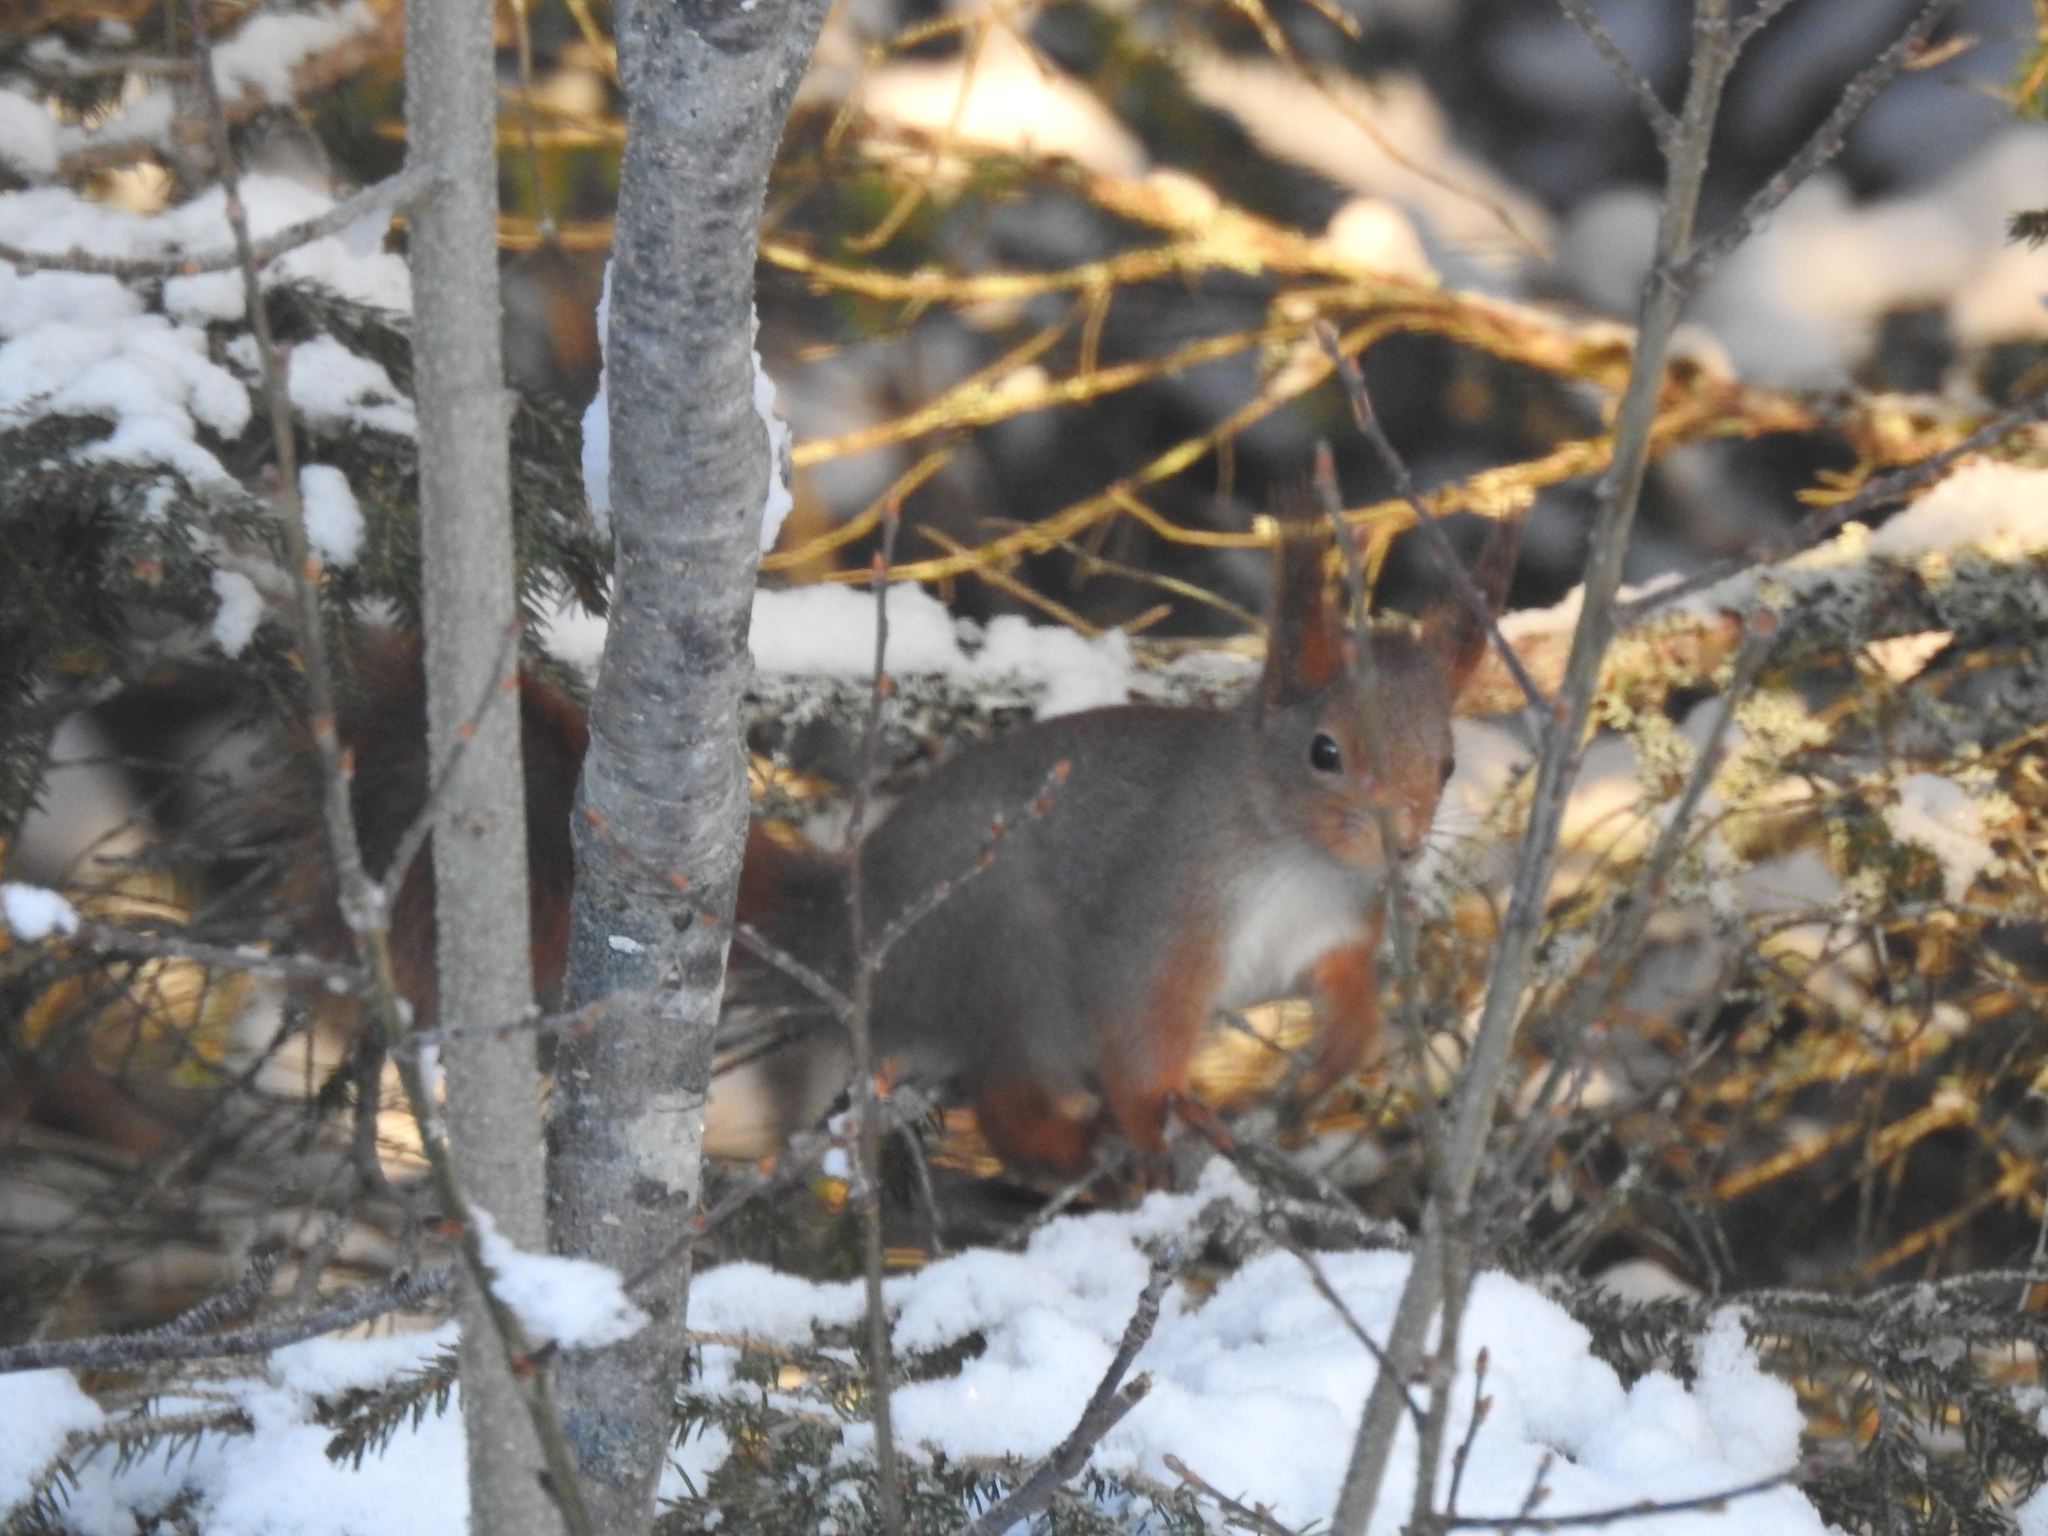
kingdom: Animalia
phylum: Chordata
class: Mammalia
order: Rodentia
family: Sciuridae
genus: Sciurus
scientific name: Sciurus vulgaris
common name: Eurasian red squirrel
